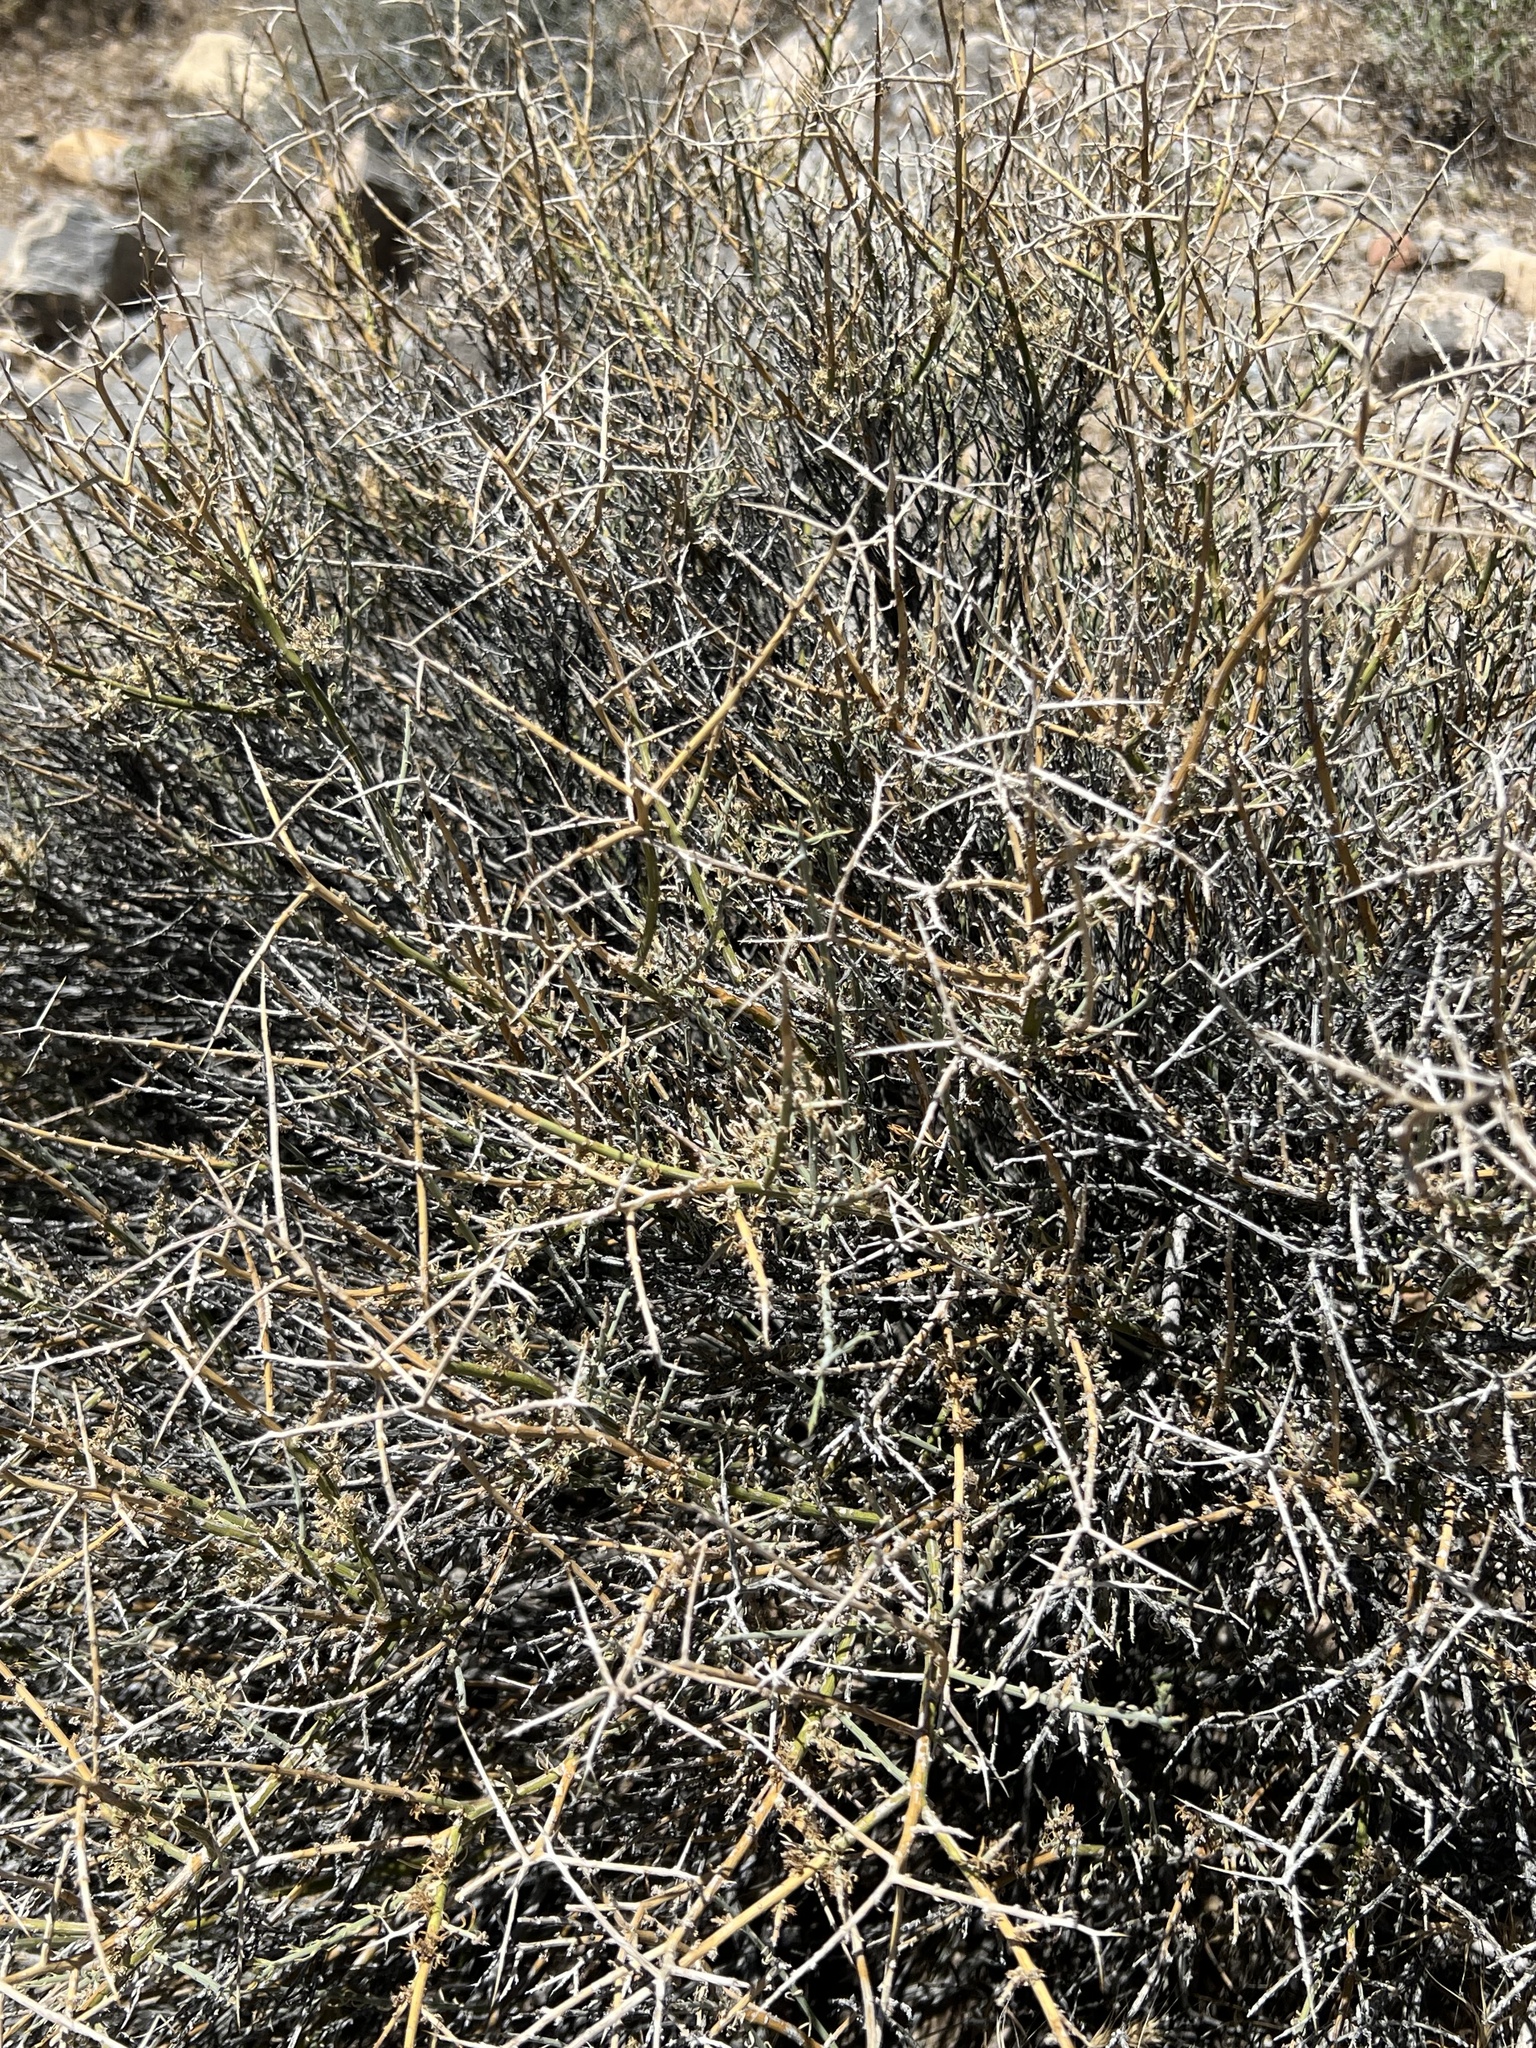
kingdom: Plantae
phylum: Tracheophyta
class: Magnoliopsida
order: Lamiales
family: Oleaceae
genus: Menodora
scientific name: Menodora spinescens
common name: Spiny menodora
